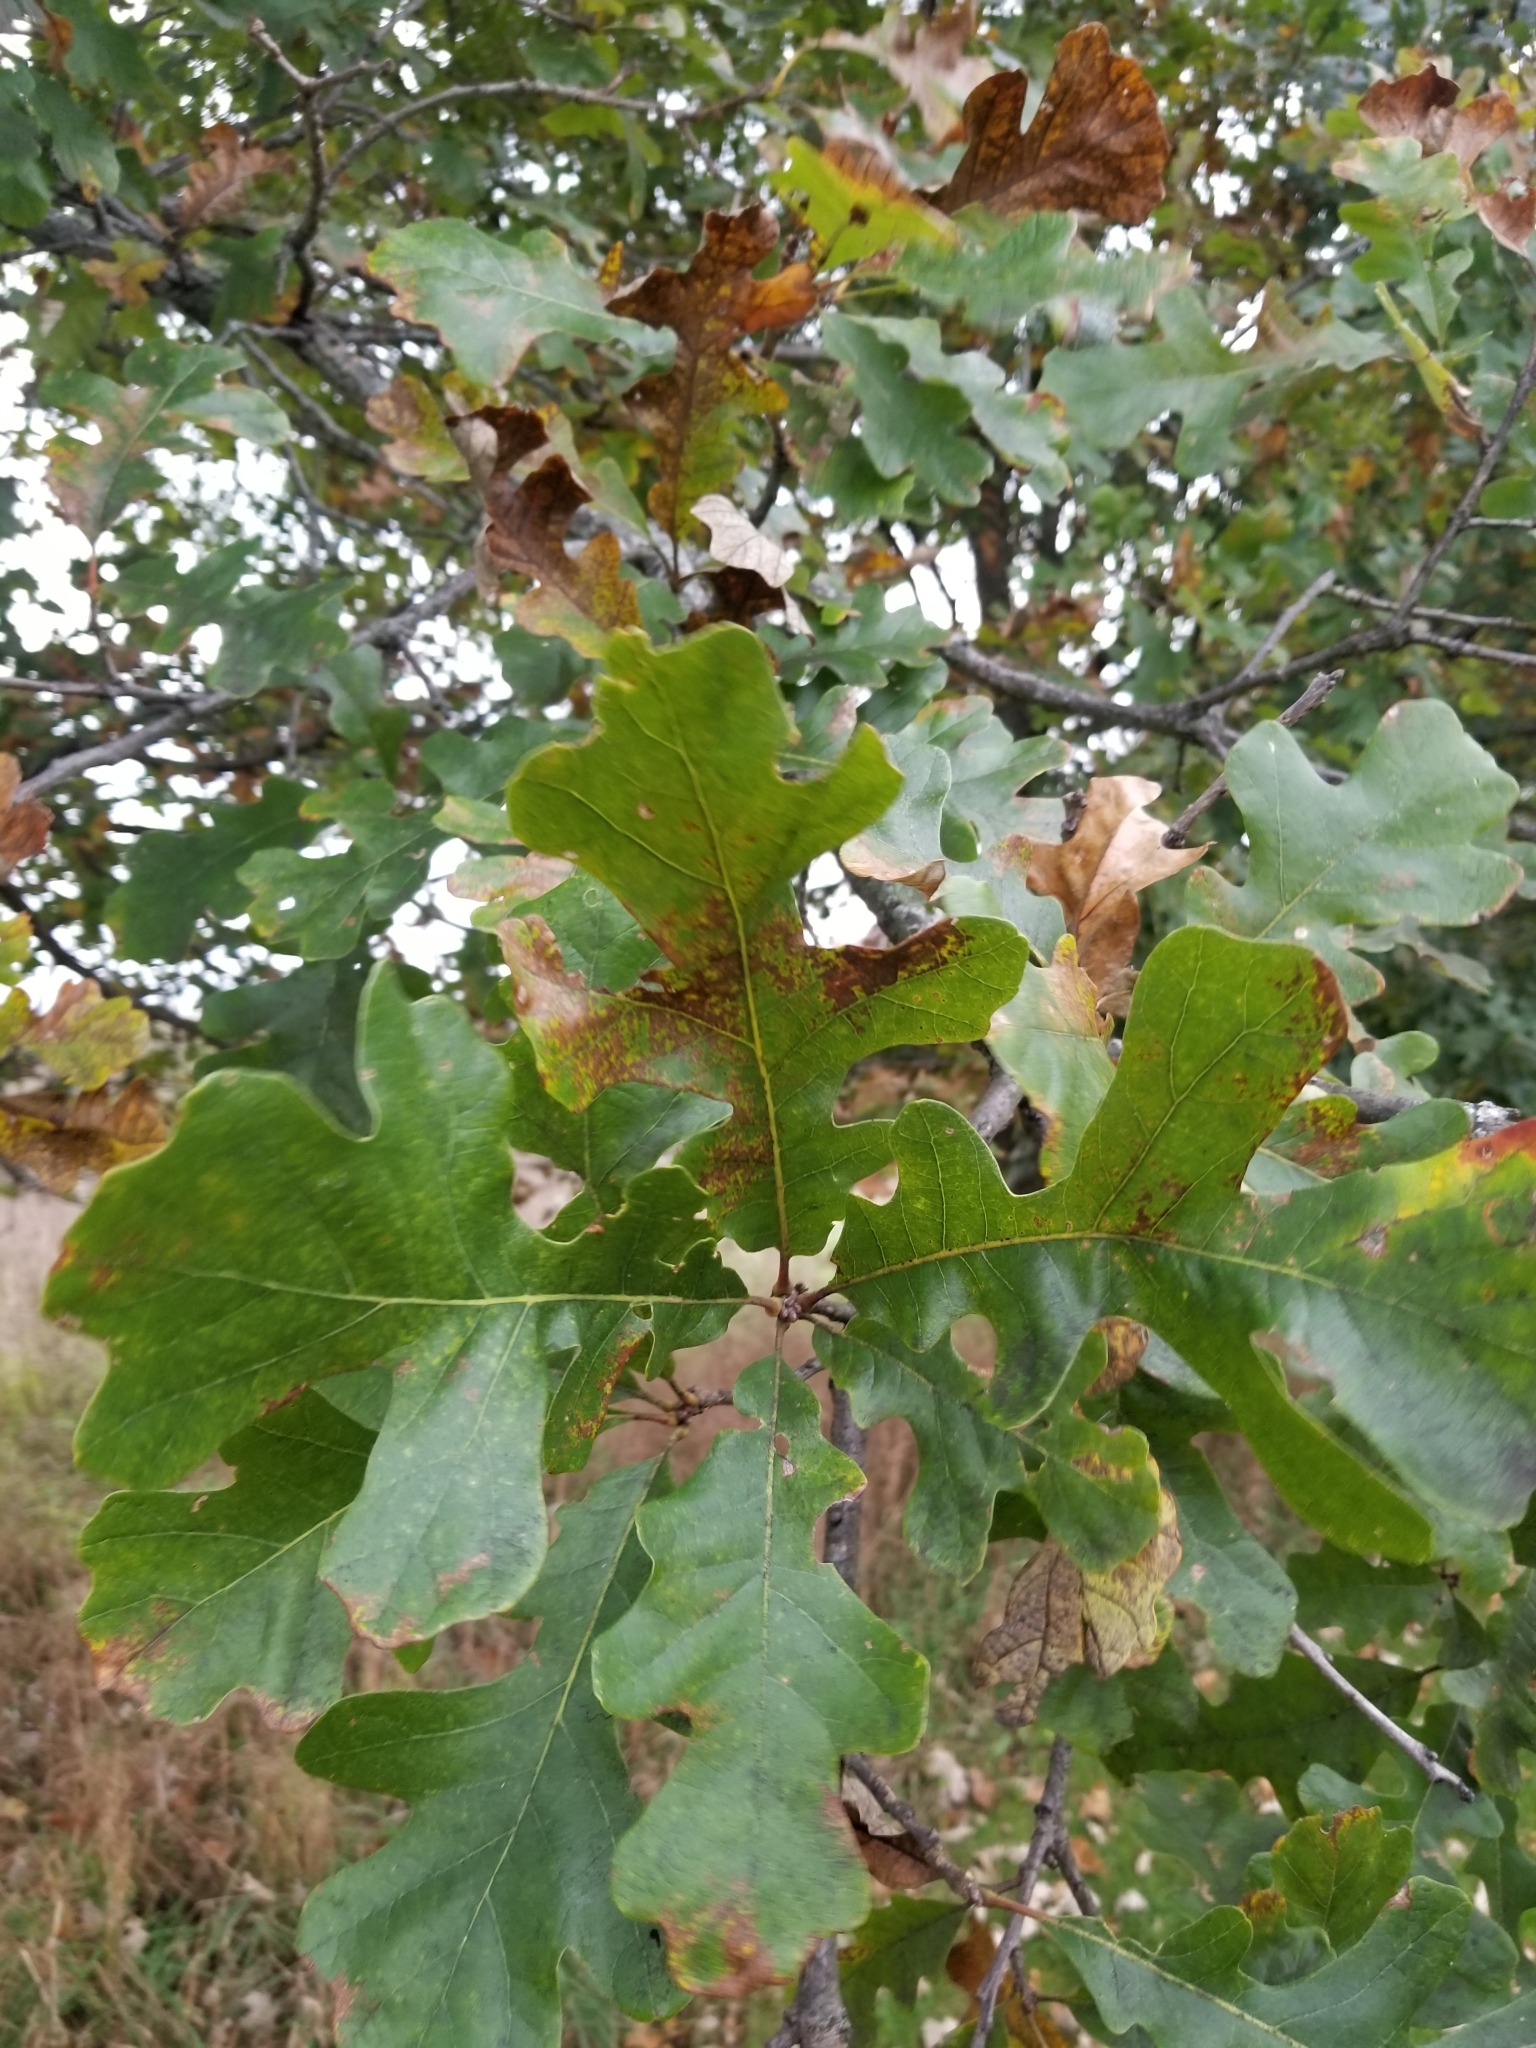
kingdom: Plantae
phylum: Tracheophyta
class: Magnoliopsida
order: Fagales
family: Fagaceae
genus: Quercus
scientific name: Quercus macrocarpa
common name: Bur oak
